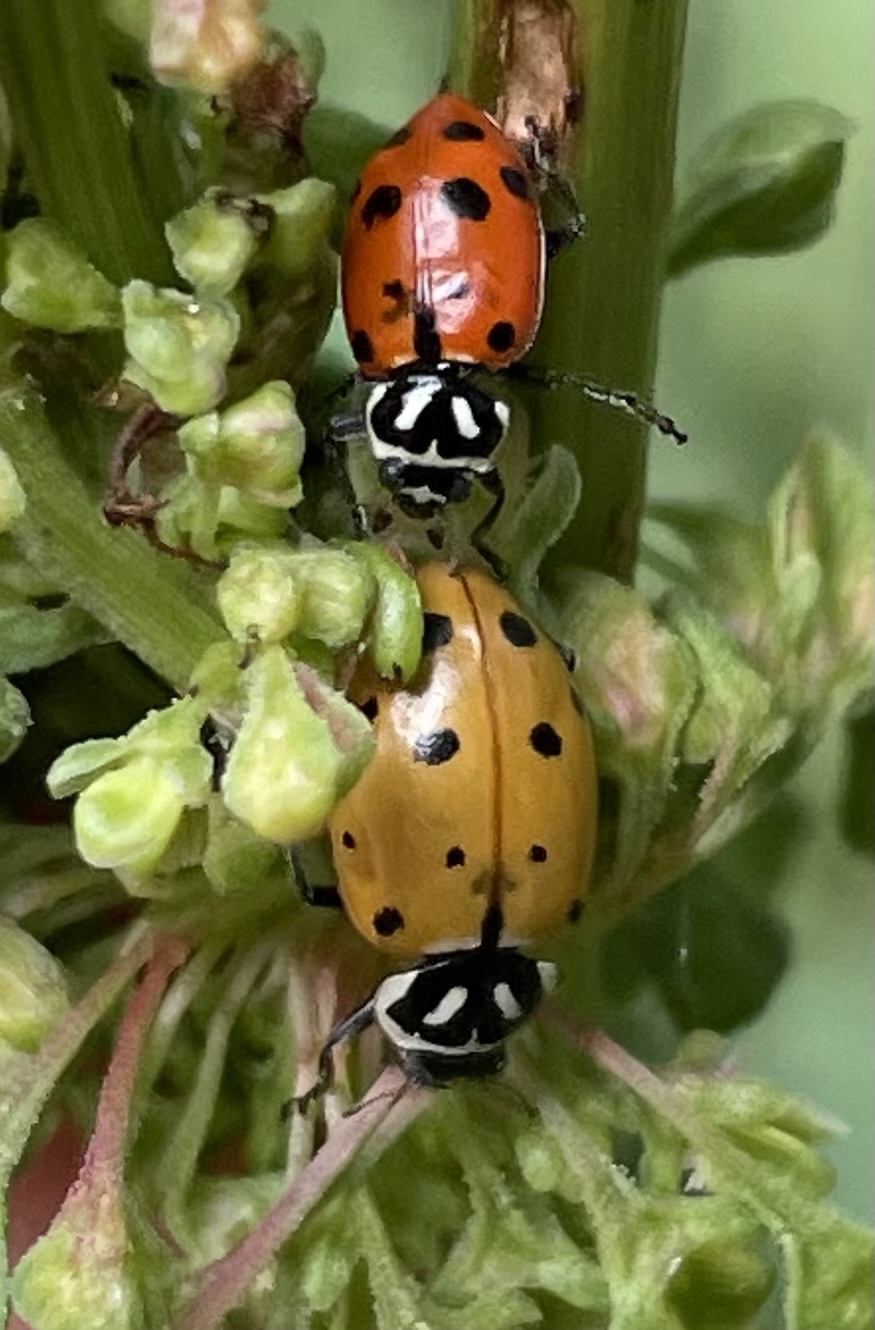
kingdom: Animalia
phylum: Arthropoda
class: Insecta
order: Coleoptera
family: Coccinellidae
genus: Hippodamia
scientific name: Hippodamia convergens
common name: Convergent lady beetle
